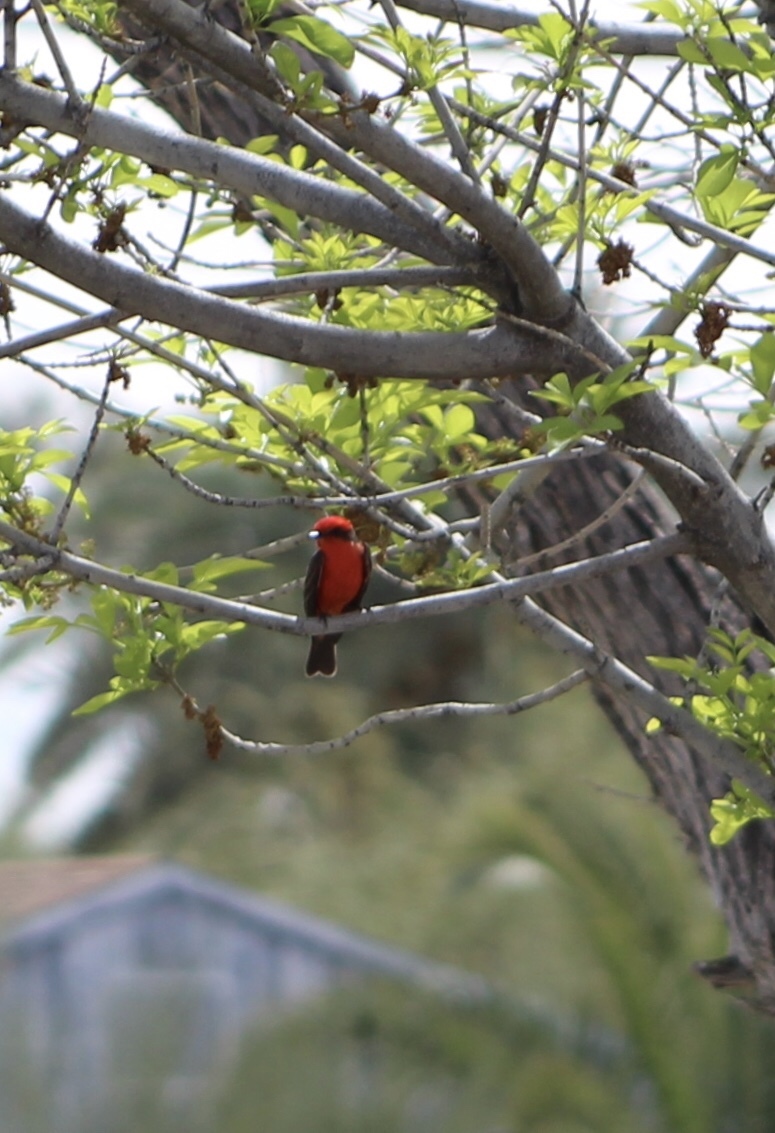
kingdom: Animalia
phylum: Chordata
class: Aves
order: Passeriformes
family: Tyrannidae
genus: Pyrocephalus
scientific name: Pyrocephalus rubinus
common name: Vermilion flycatcher
